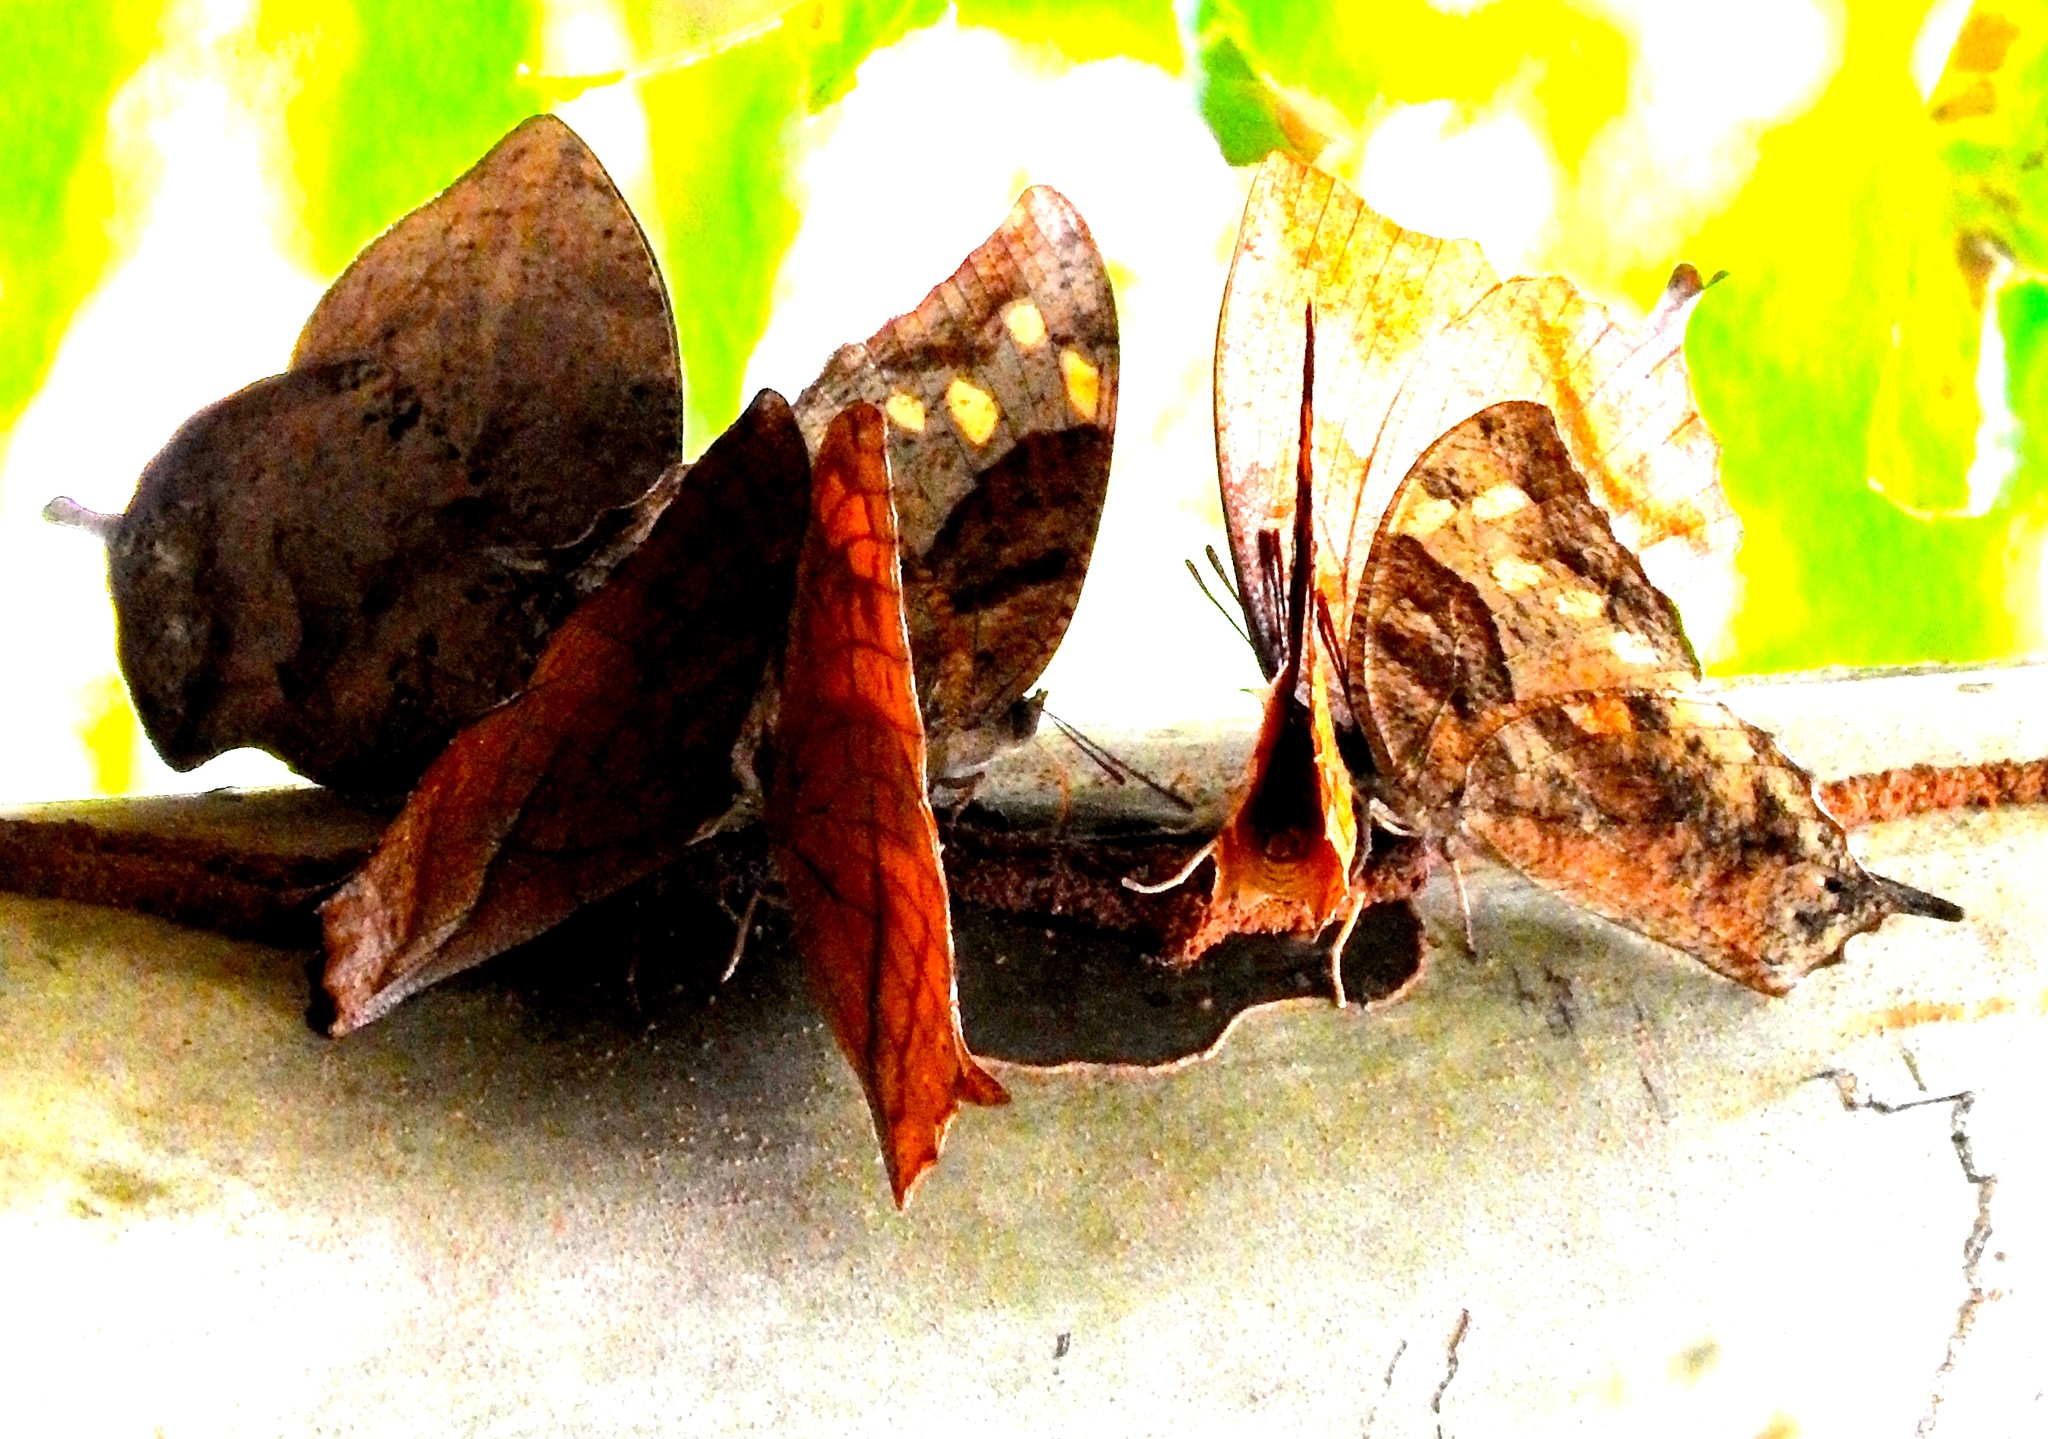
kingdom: Animalia
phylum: Arthropoda
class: Insecta
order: Lepidoptera
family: Nymphalidae
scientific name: Nymphalidae
